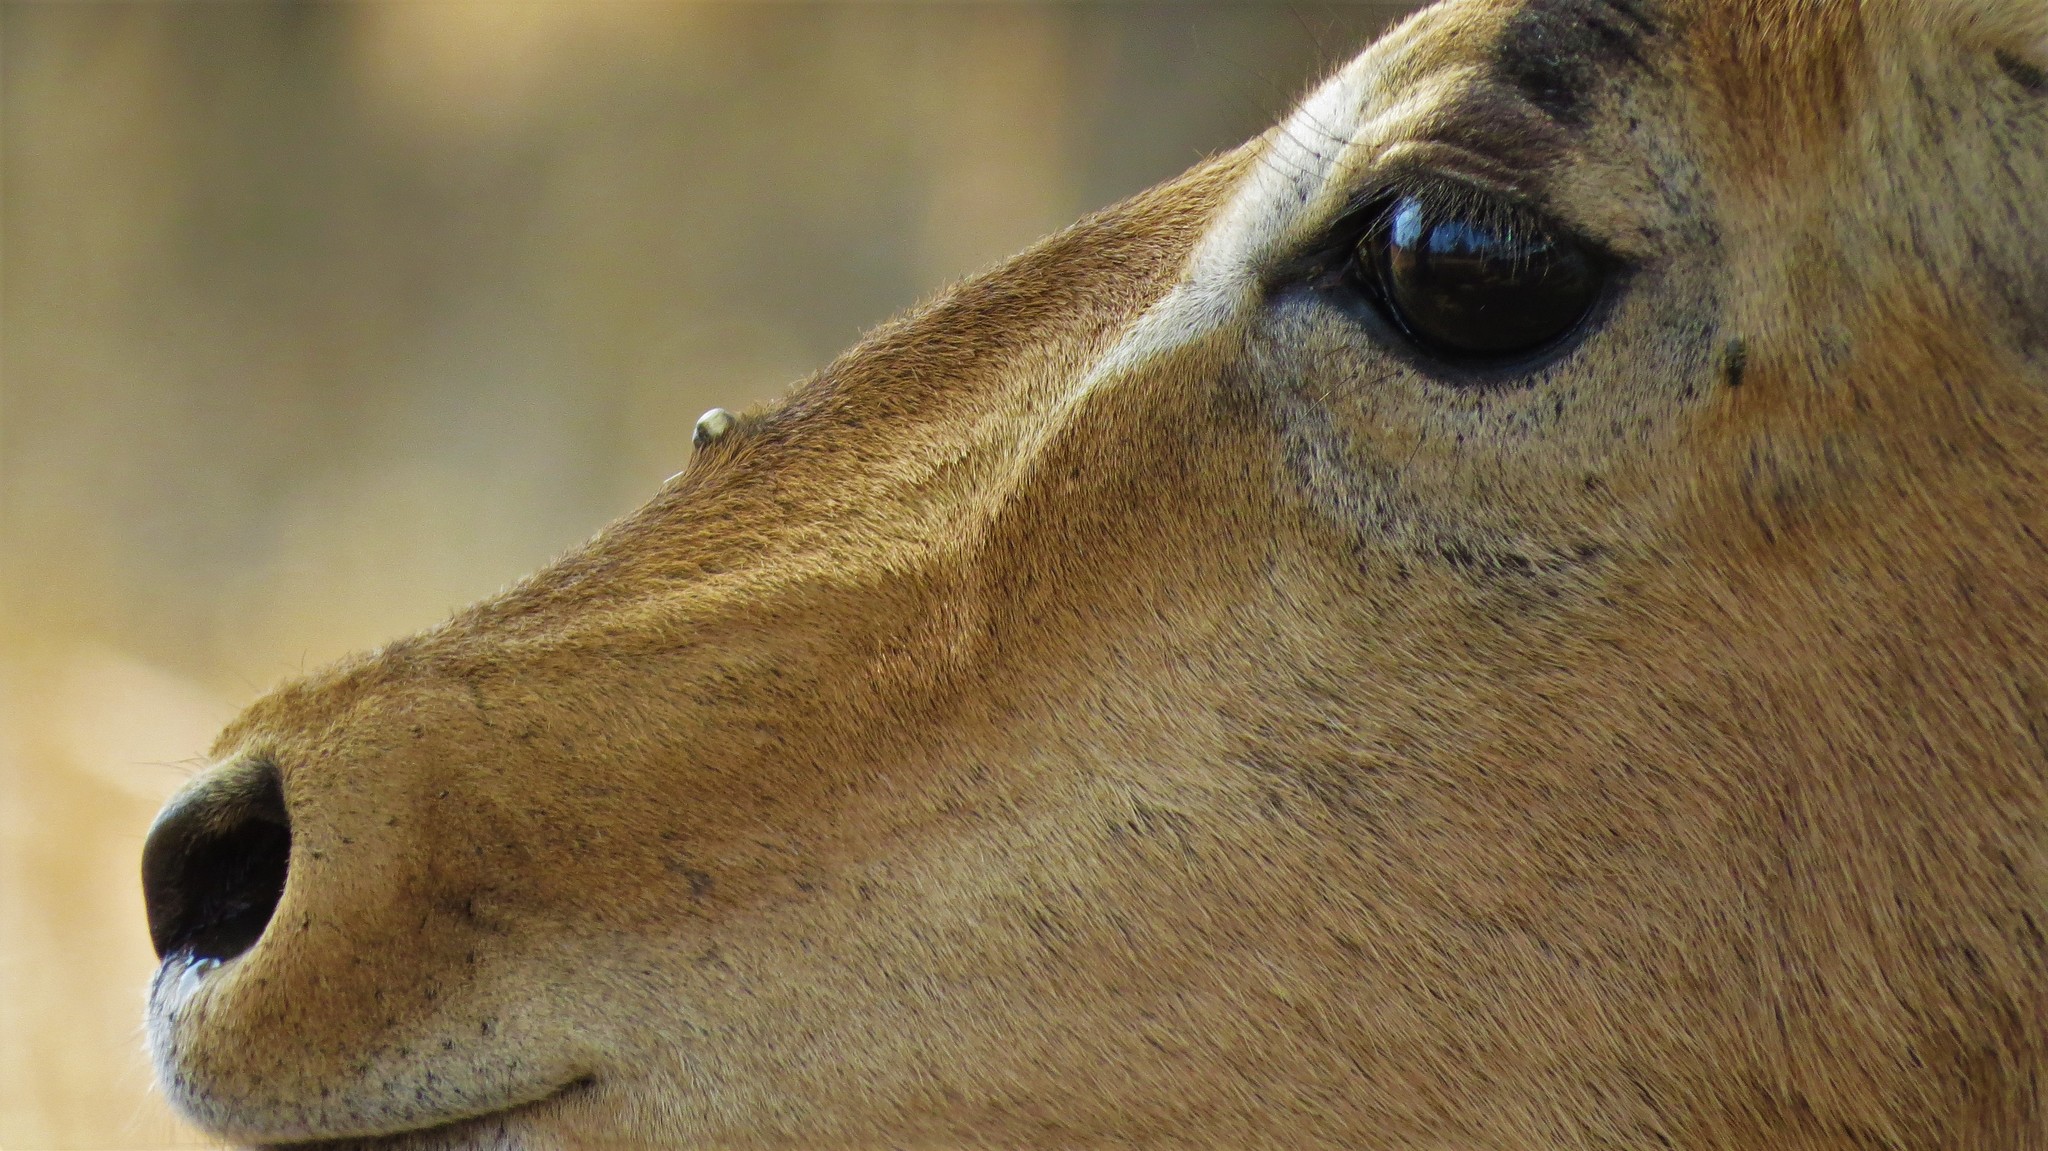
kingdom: Animalia
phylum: Chordata
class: Mammalia
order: Artiodactyla
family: Bovidae
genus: Aepyceros
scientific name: Aepyceros melampus
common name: Impala
